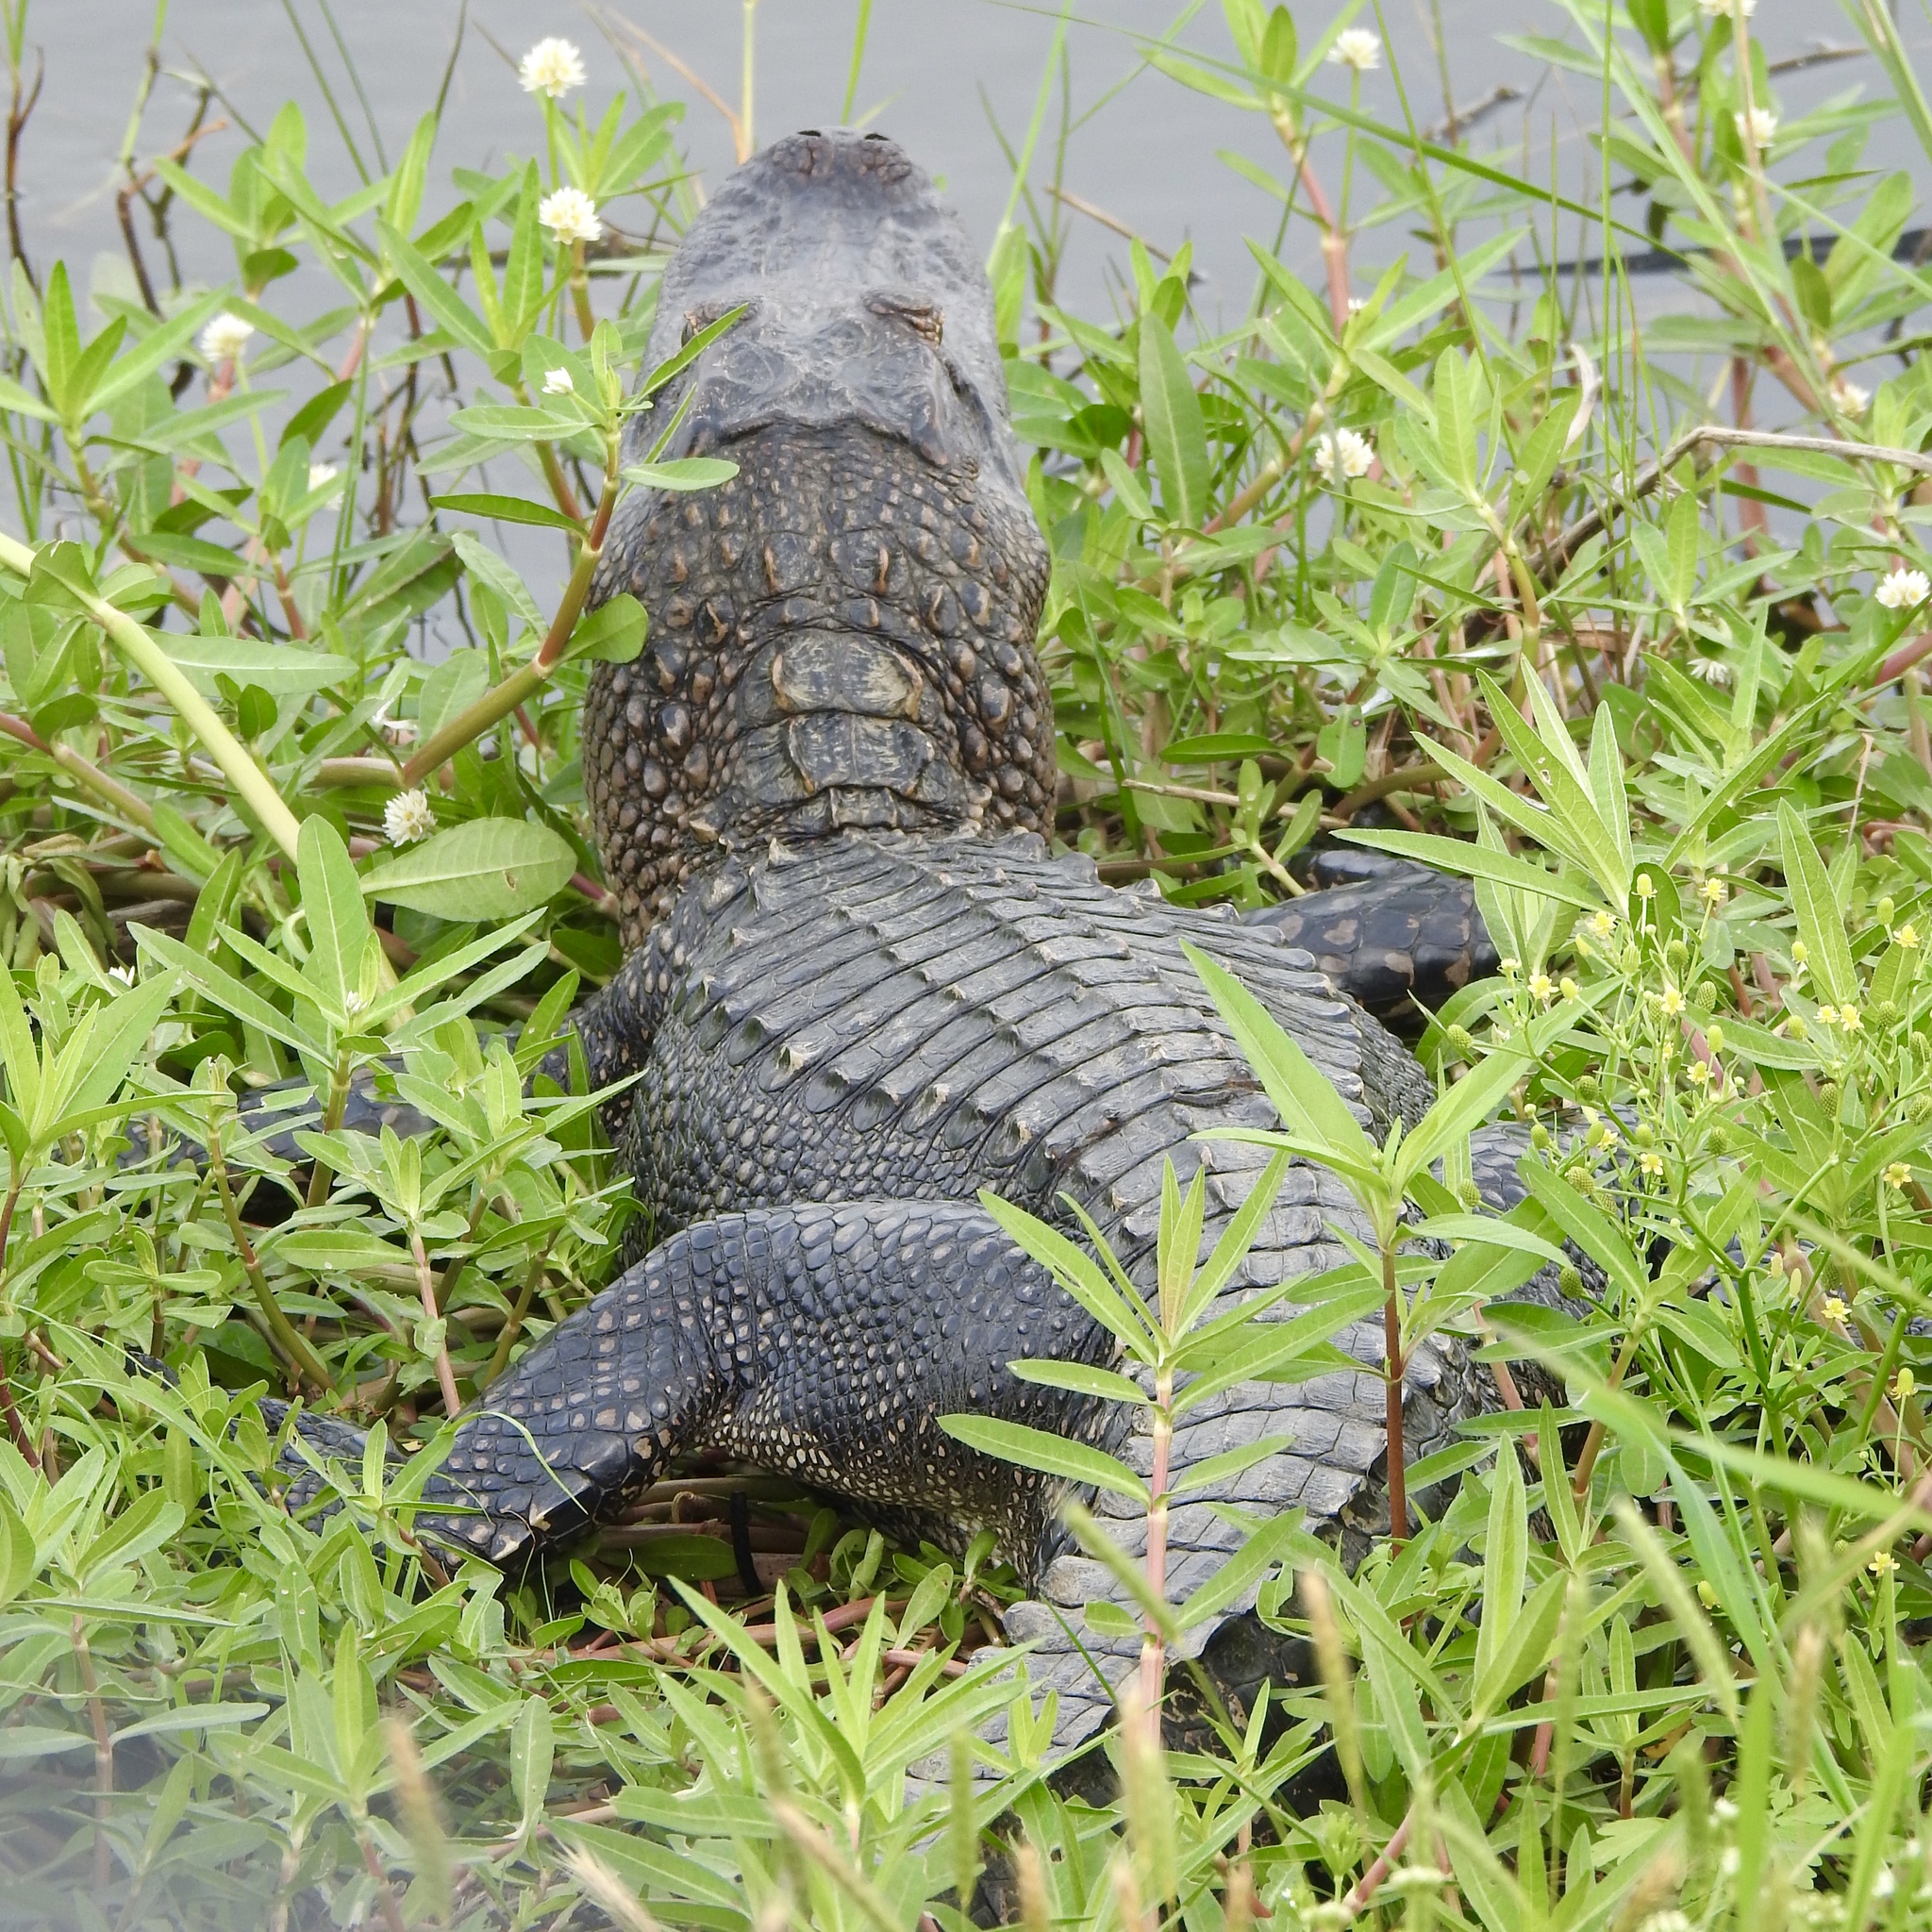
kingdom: Animalia
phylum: Chordata
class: Crocodylia
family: Alligatoridae
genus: Alligator
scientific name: Alligator mississippiensis
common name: American alligator
